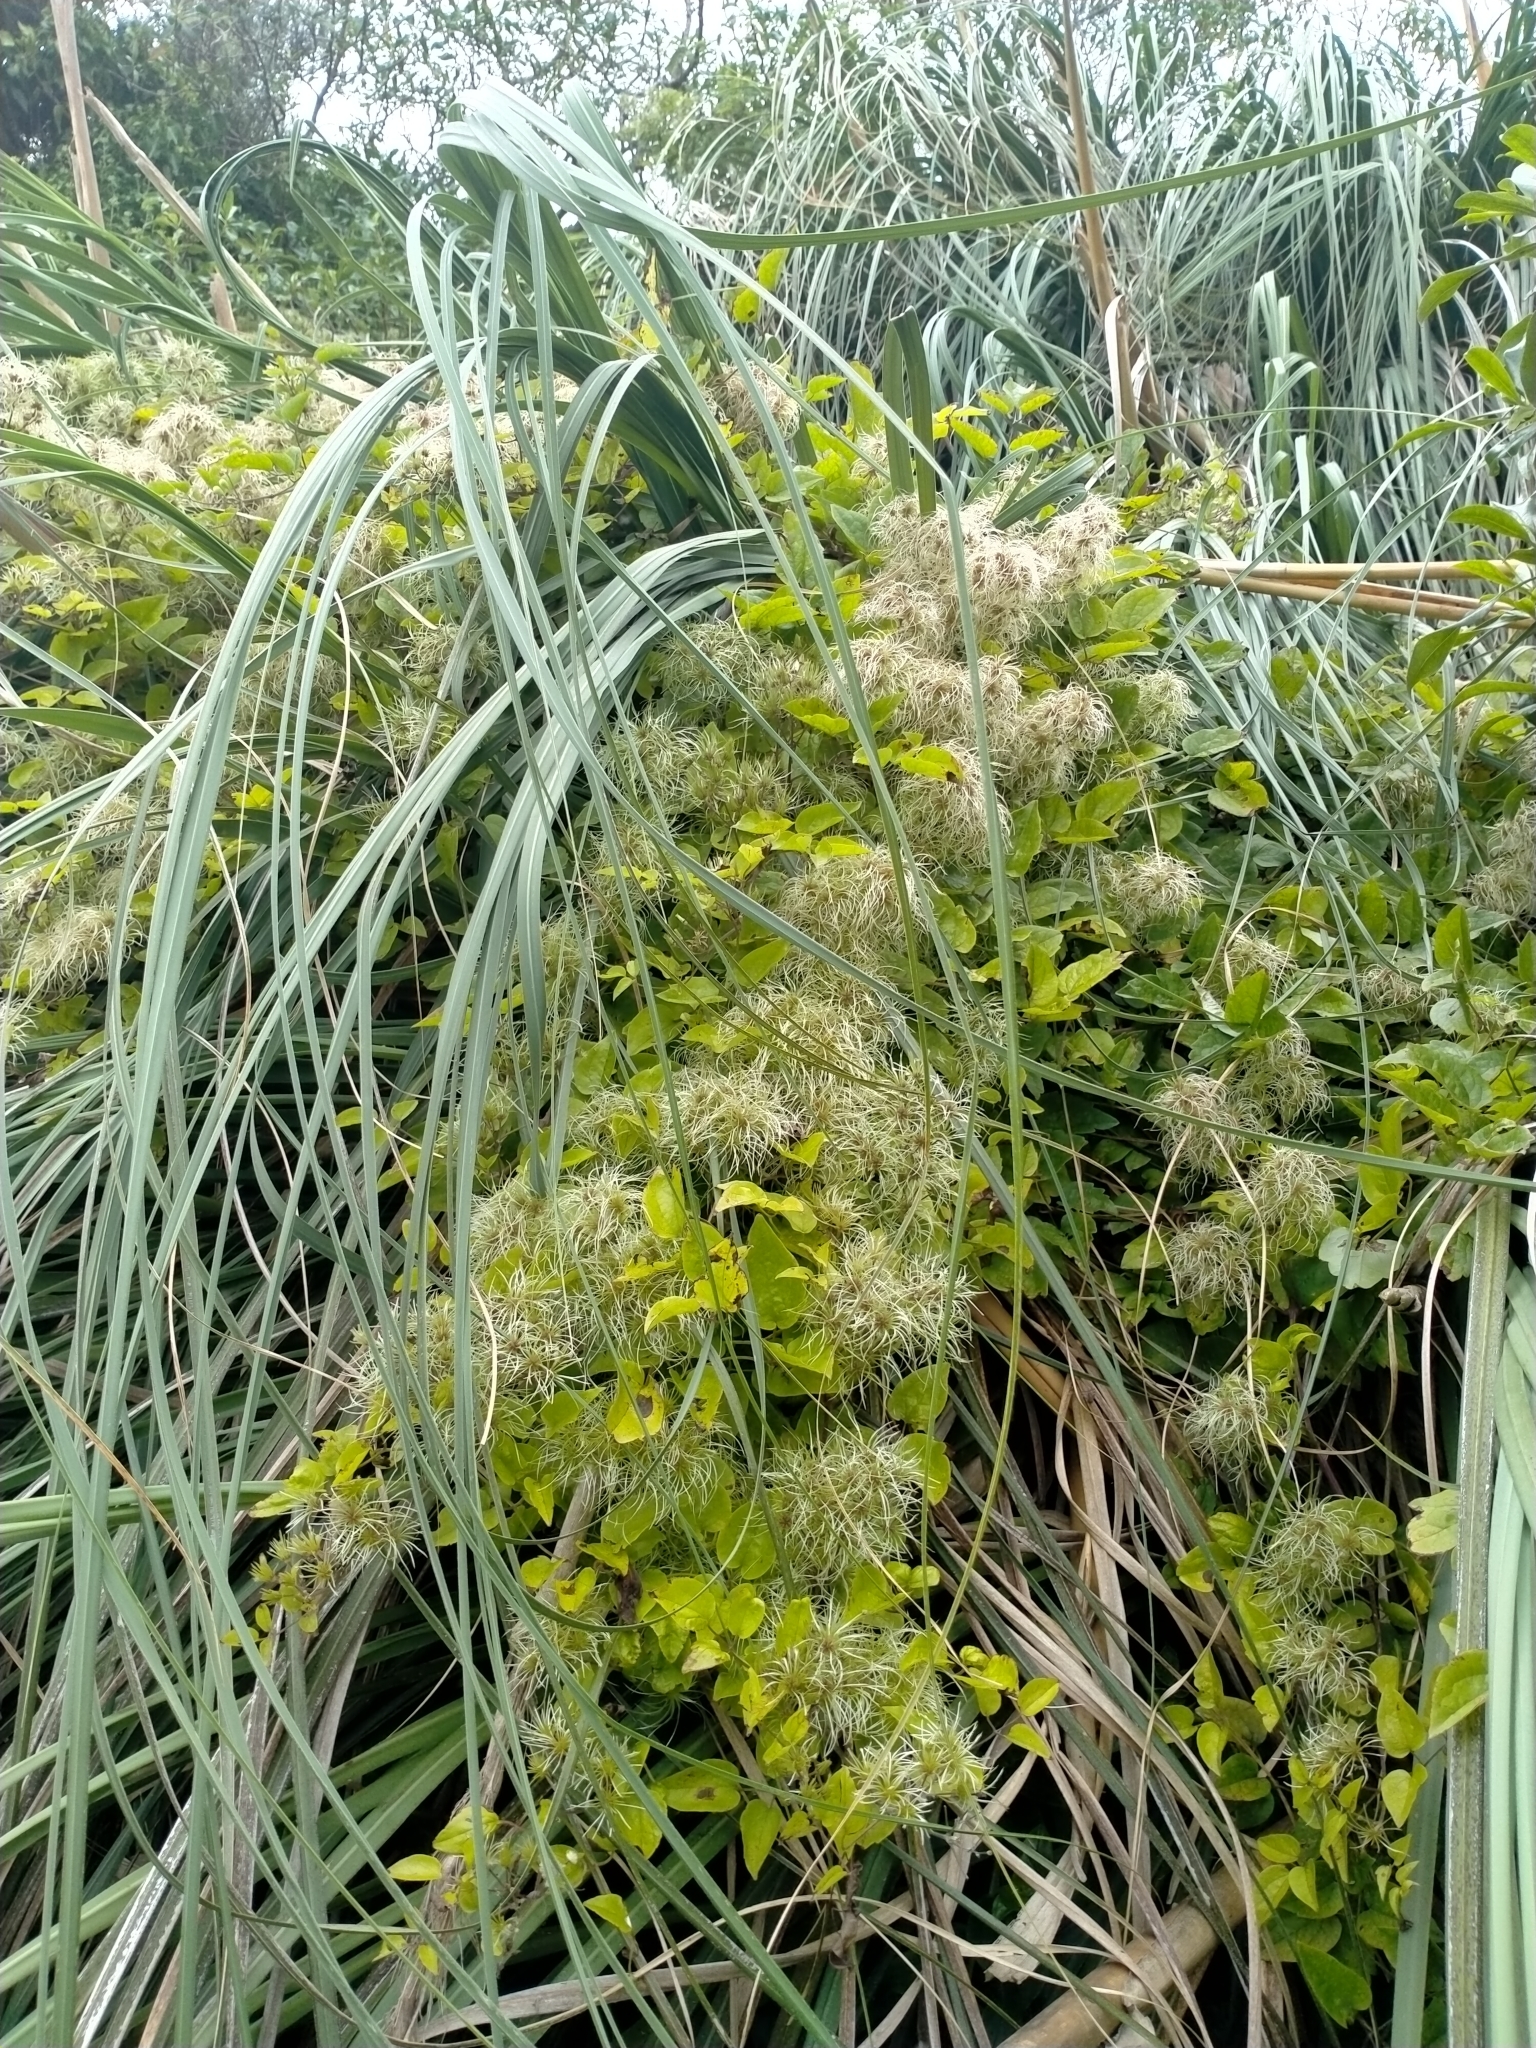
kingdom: Plantae
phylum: Tracheophyta
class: Magnoliopsida
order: Ranunculales
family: Ranunculaceae
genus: Clematis
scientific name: Clematis vitalba
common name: Evergreen clematis
